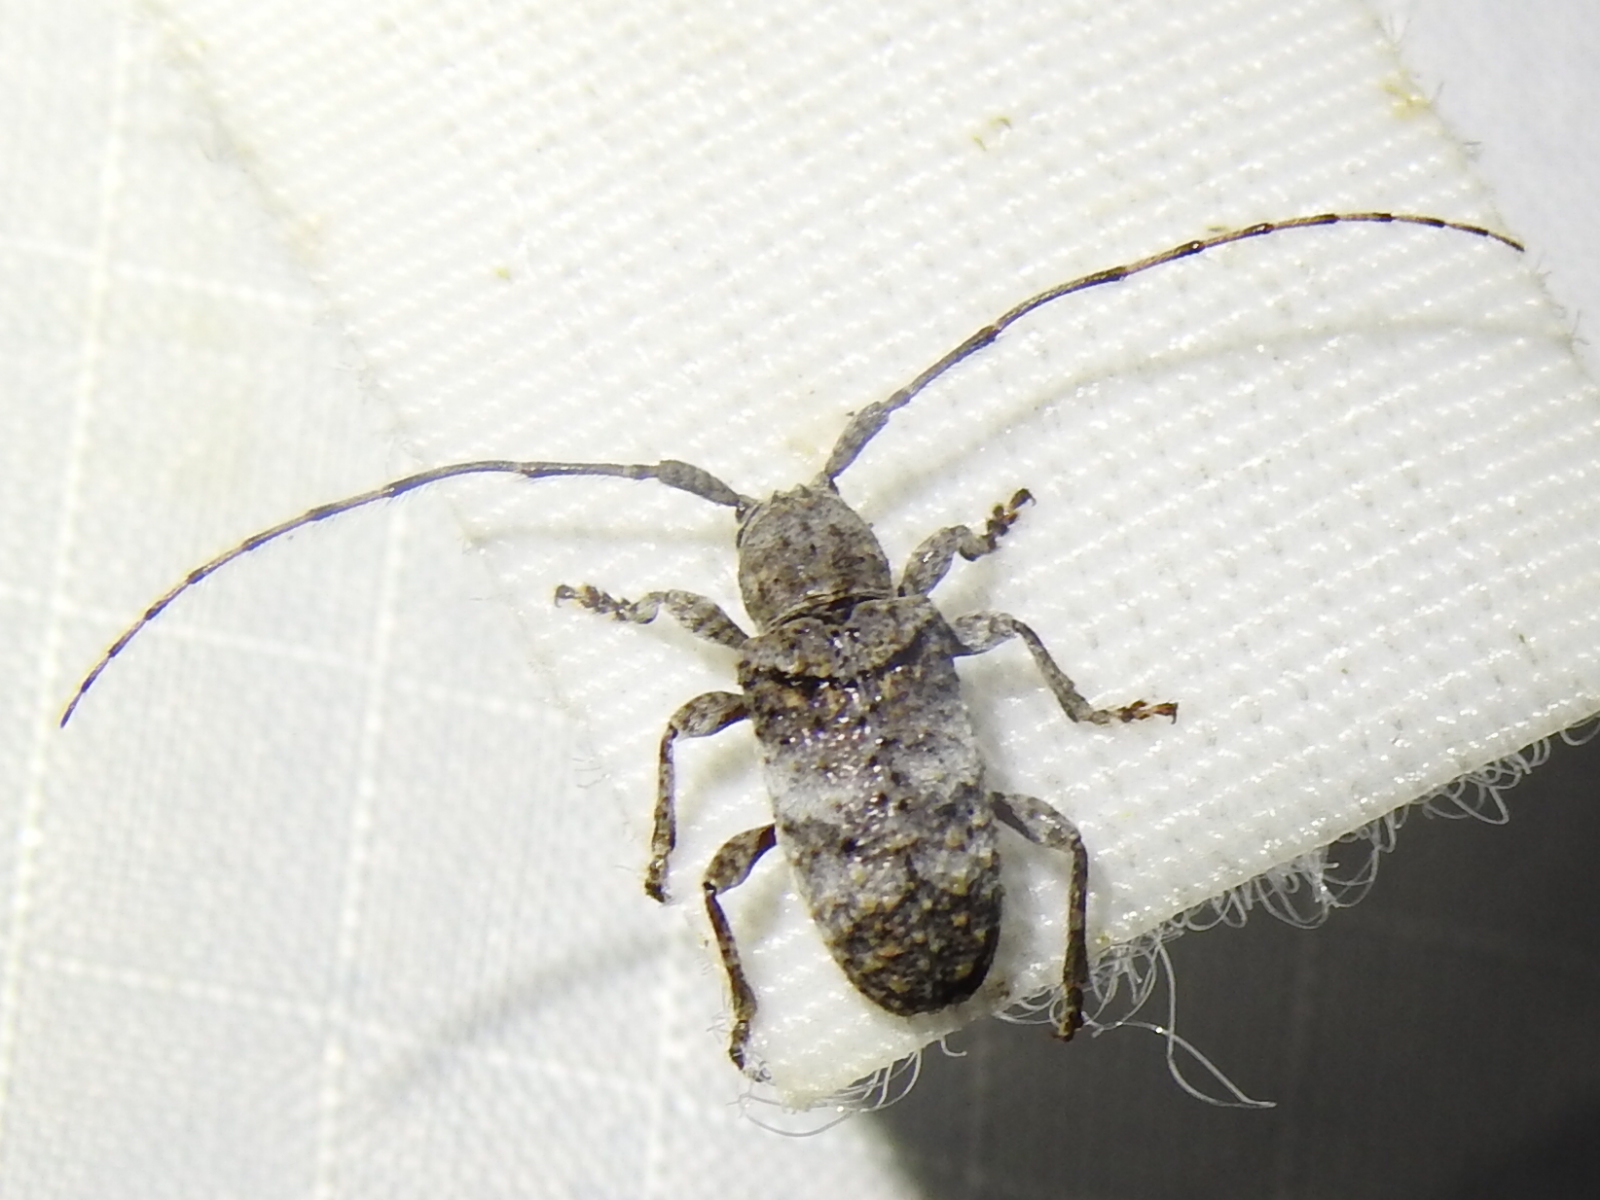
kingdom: Animalia
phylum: Arthropoda
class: Insecta
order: Coleoptera
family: Cerambycidae
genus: Ecyrus
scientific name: Ecyrus dasycerus
